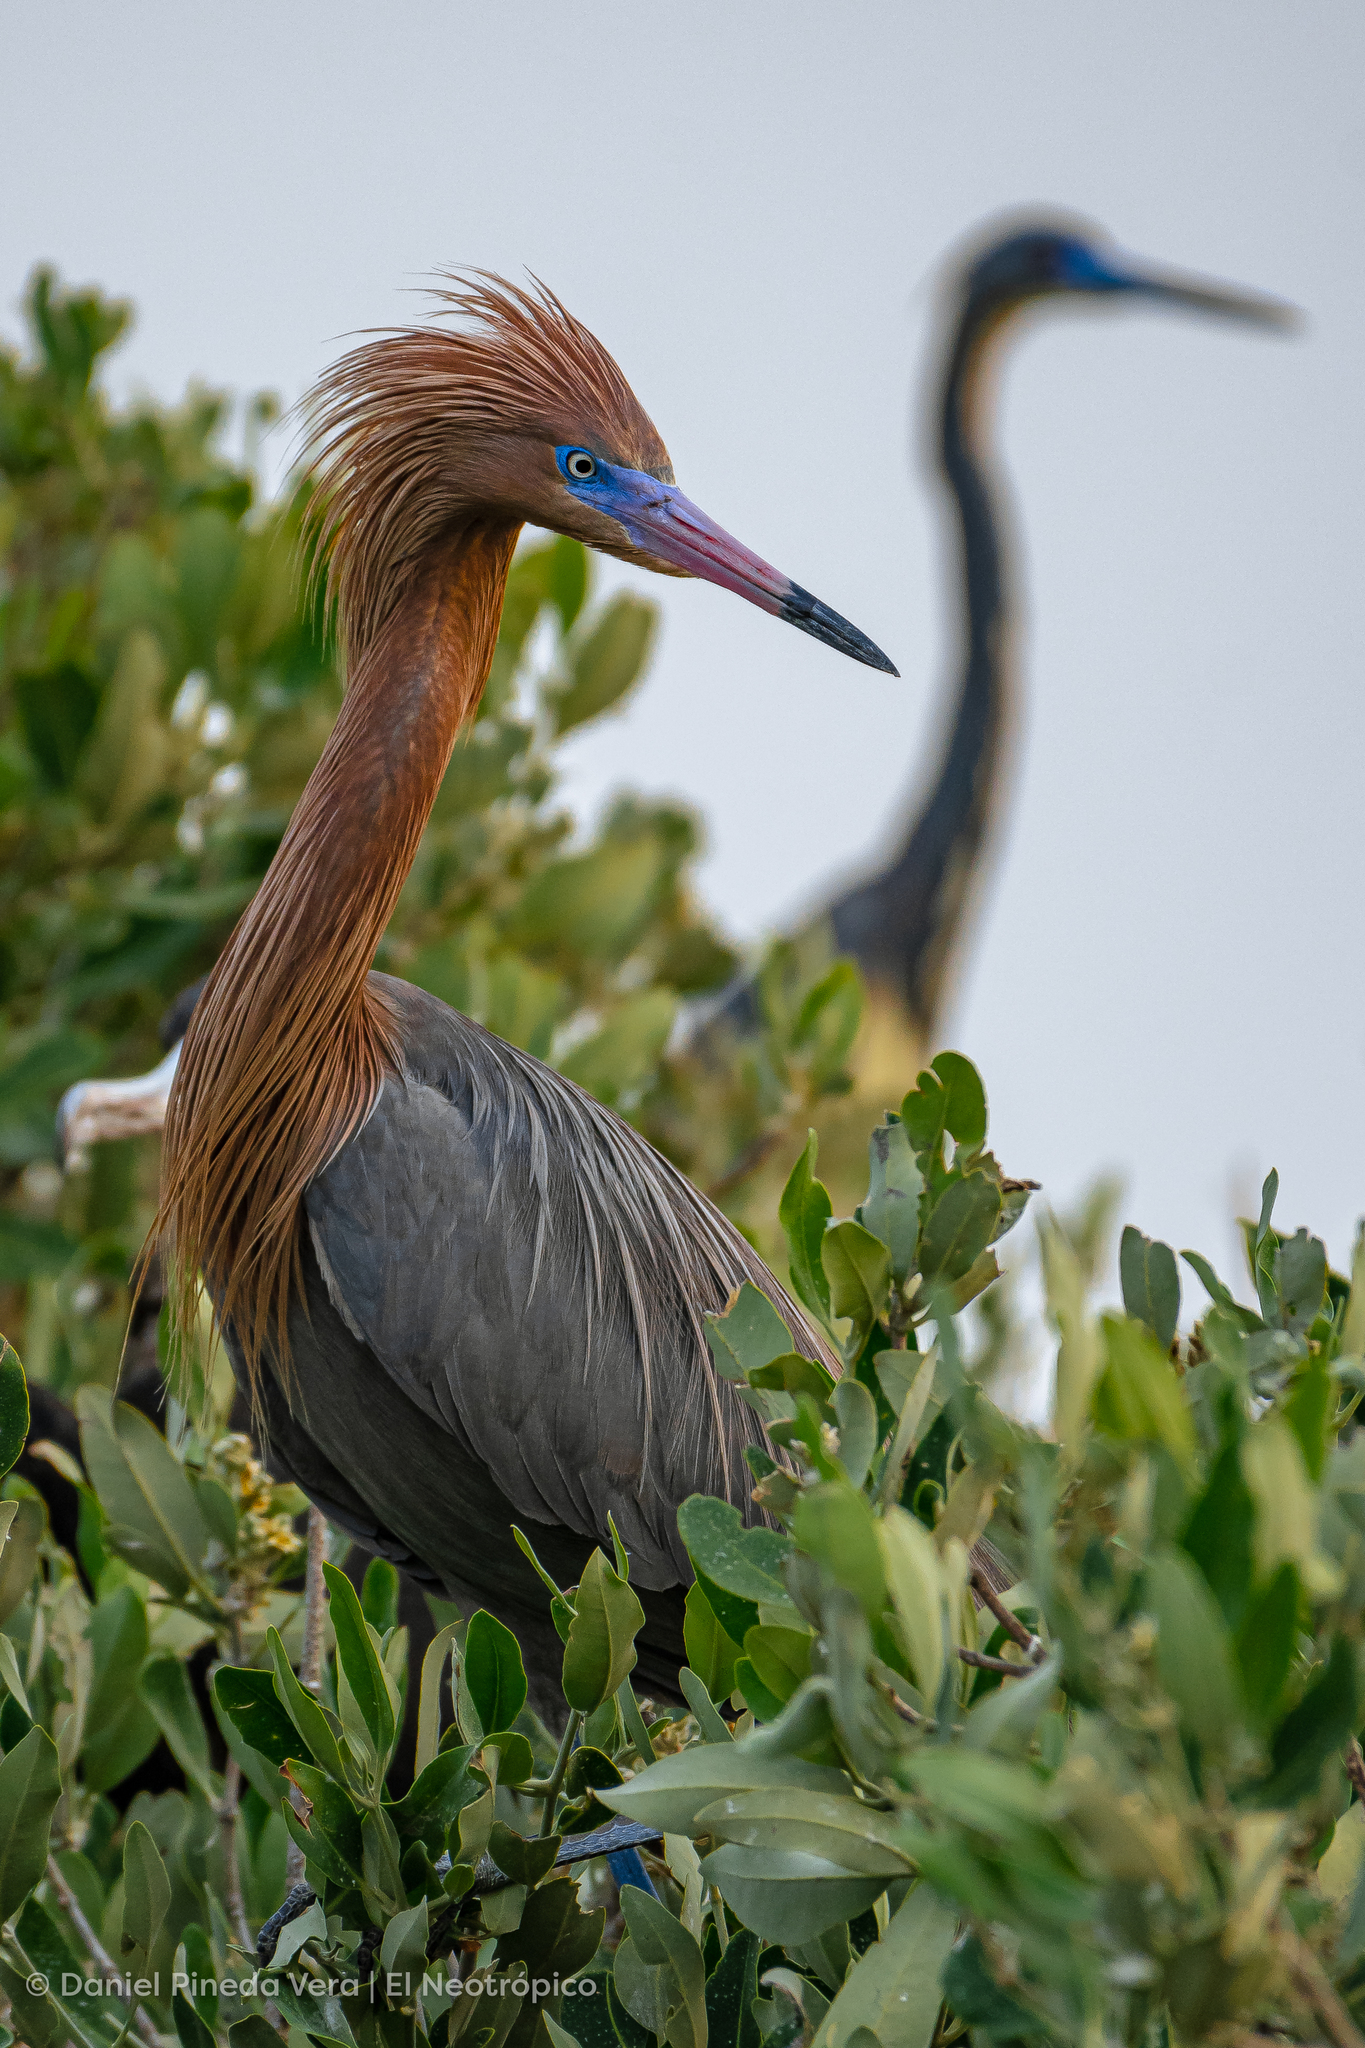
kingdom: Animalia
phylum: Chordata
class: Aves
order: Pelecaniformes
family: Ardeidae
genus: Egretta
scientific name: Egretta rufescens
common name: Reddish egret
